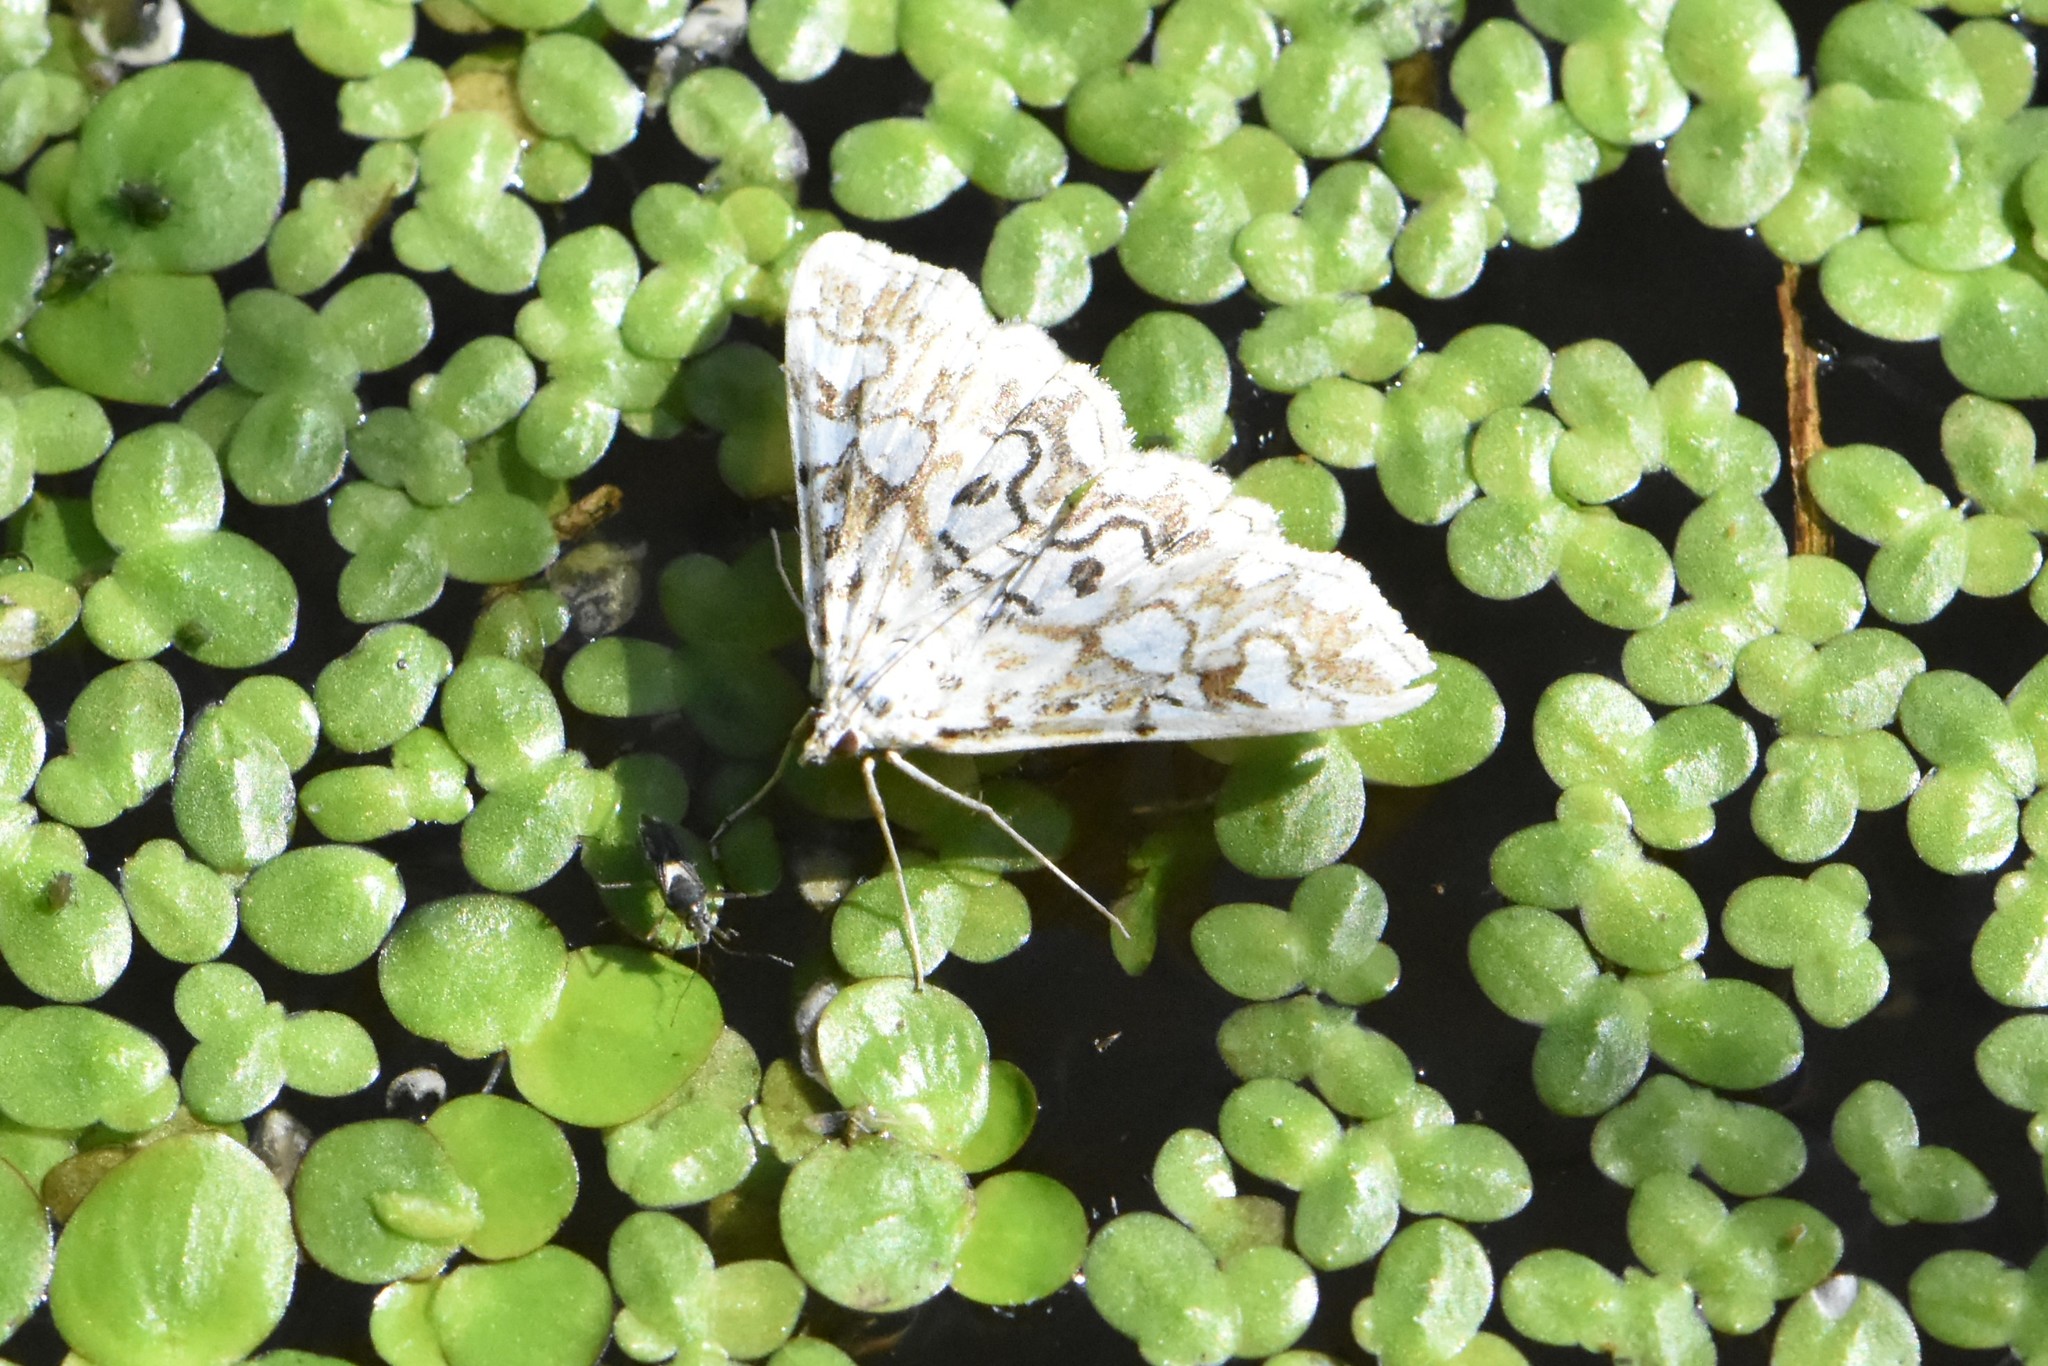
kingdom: Animalia
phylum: Arthropoda
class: Insecta
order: Lepidoptera
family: Crambidae
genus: Elophila
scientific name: Elophila nymphaeata
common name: Brown china-mark
